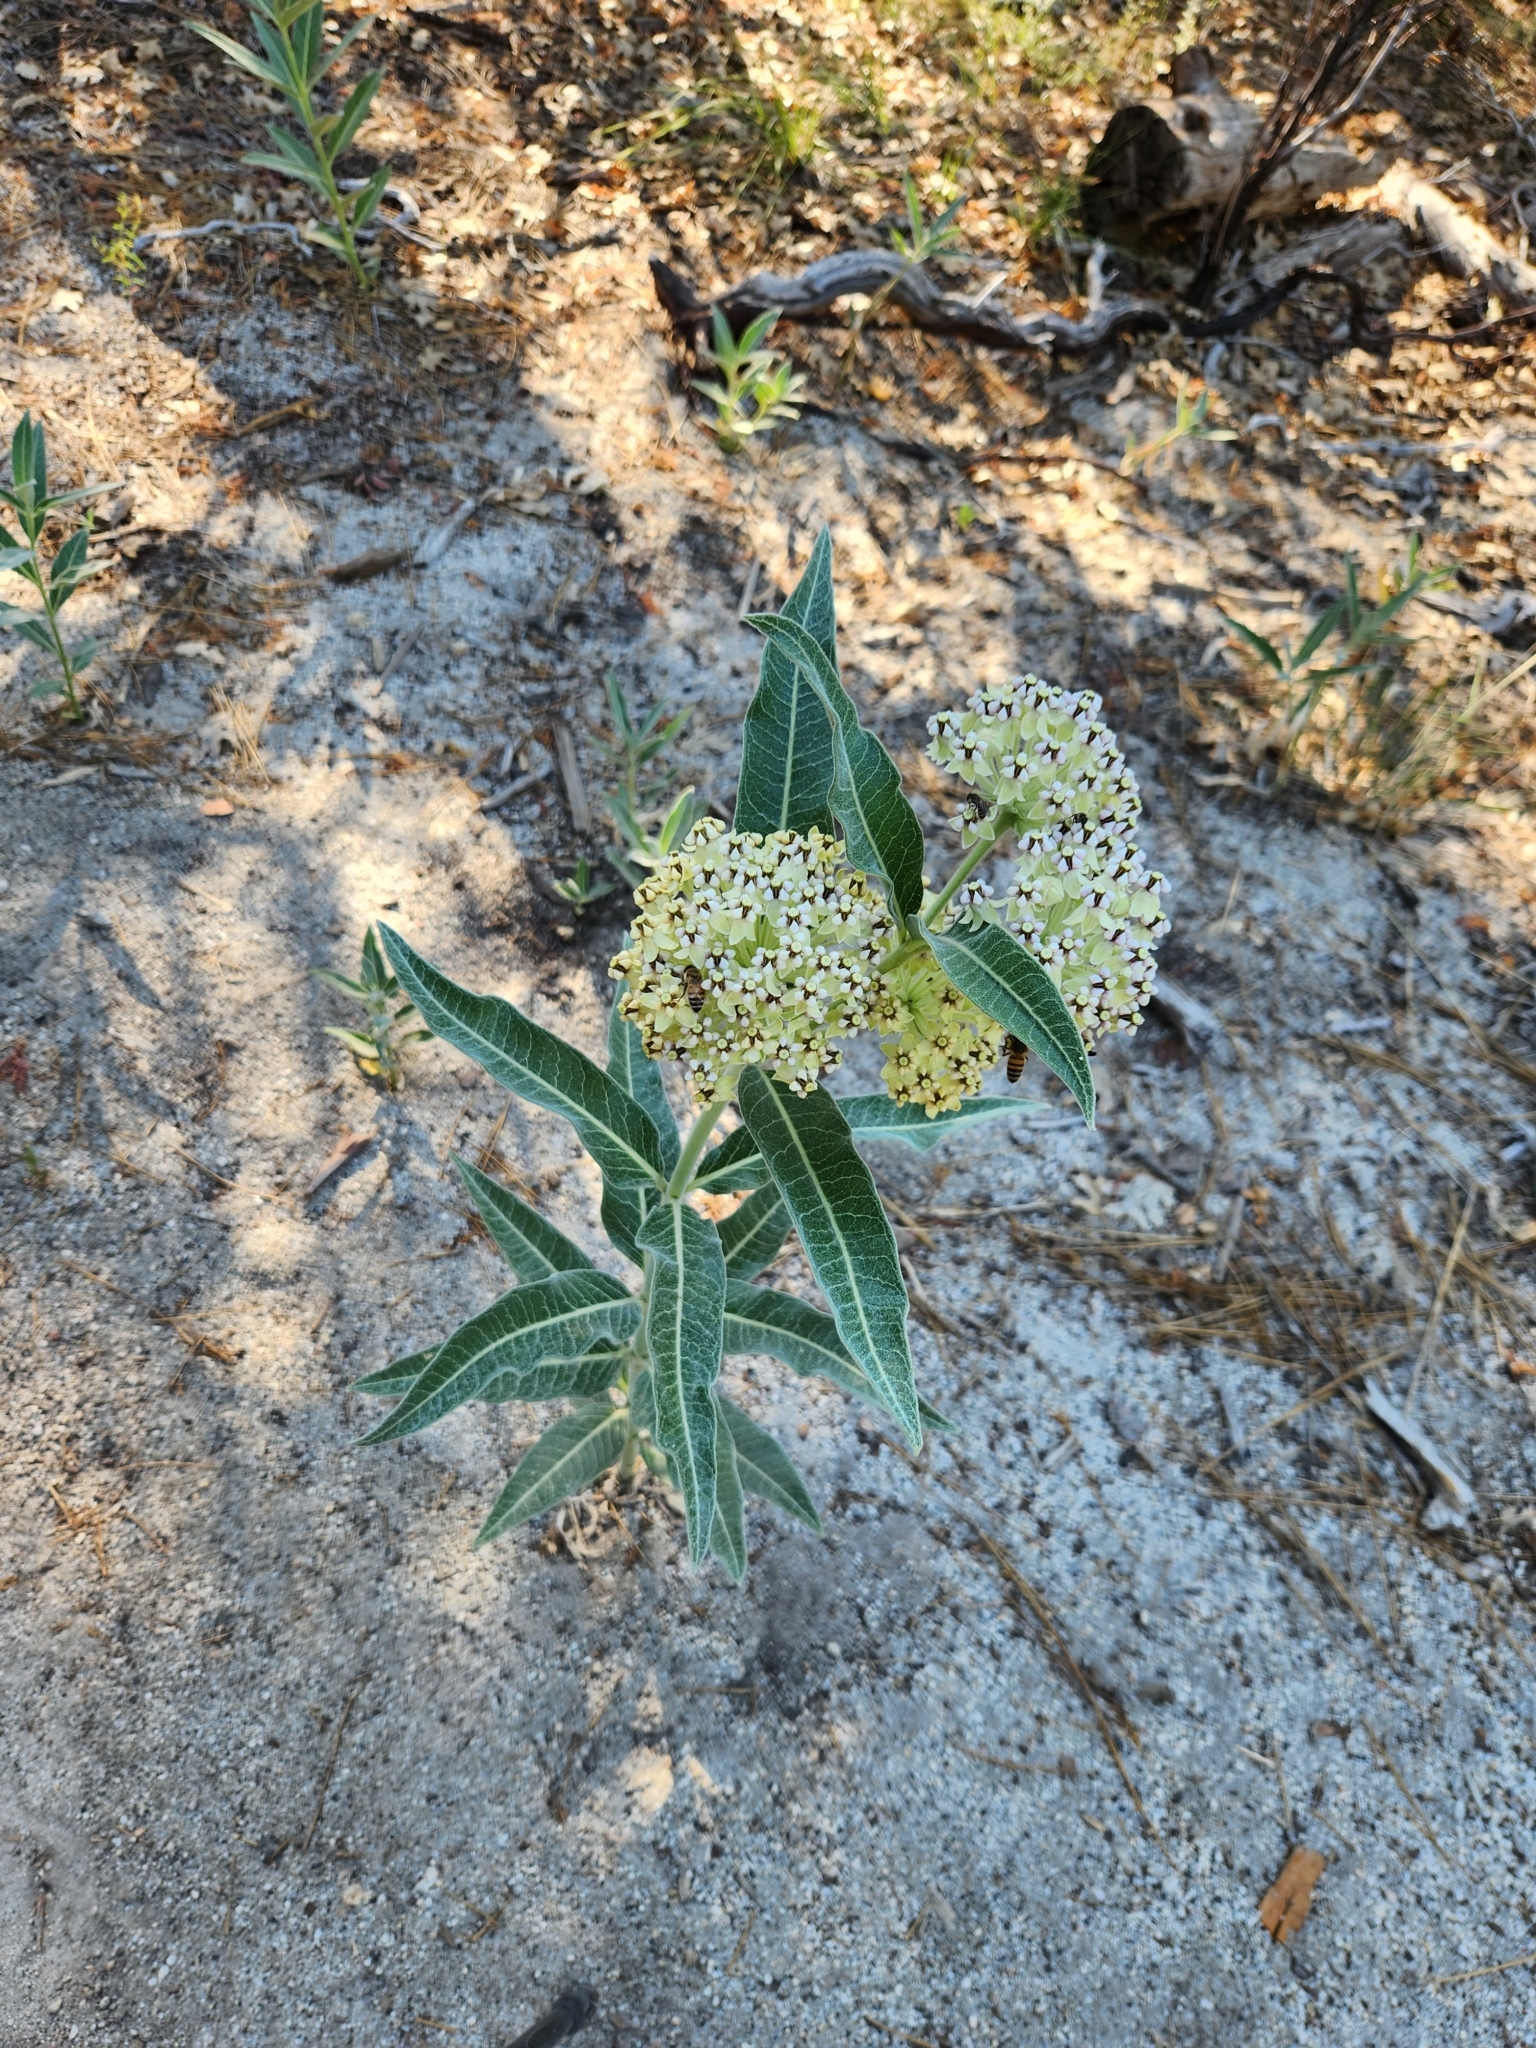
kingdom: Plantae
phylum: Tracheophyta
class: Magnoliopsida
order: Gentianales
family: Apocynaceae
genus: Asclepias
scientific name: Asclepias eriocarpa
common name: Indian milkweed
